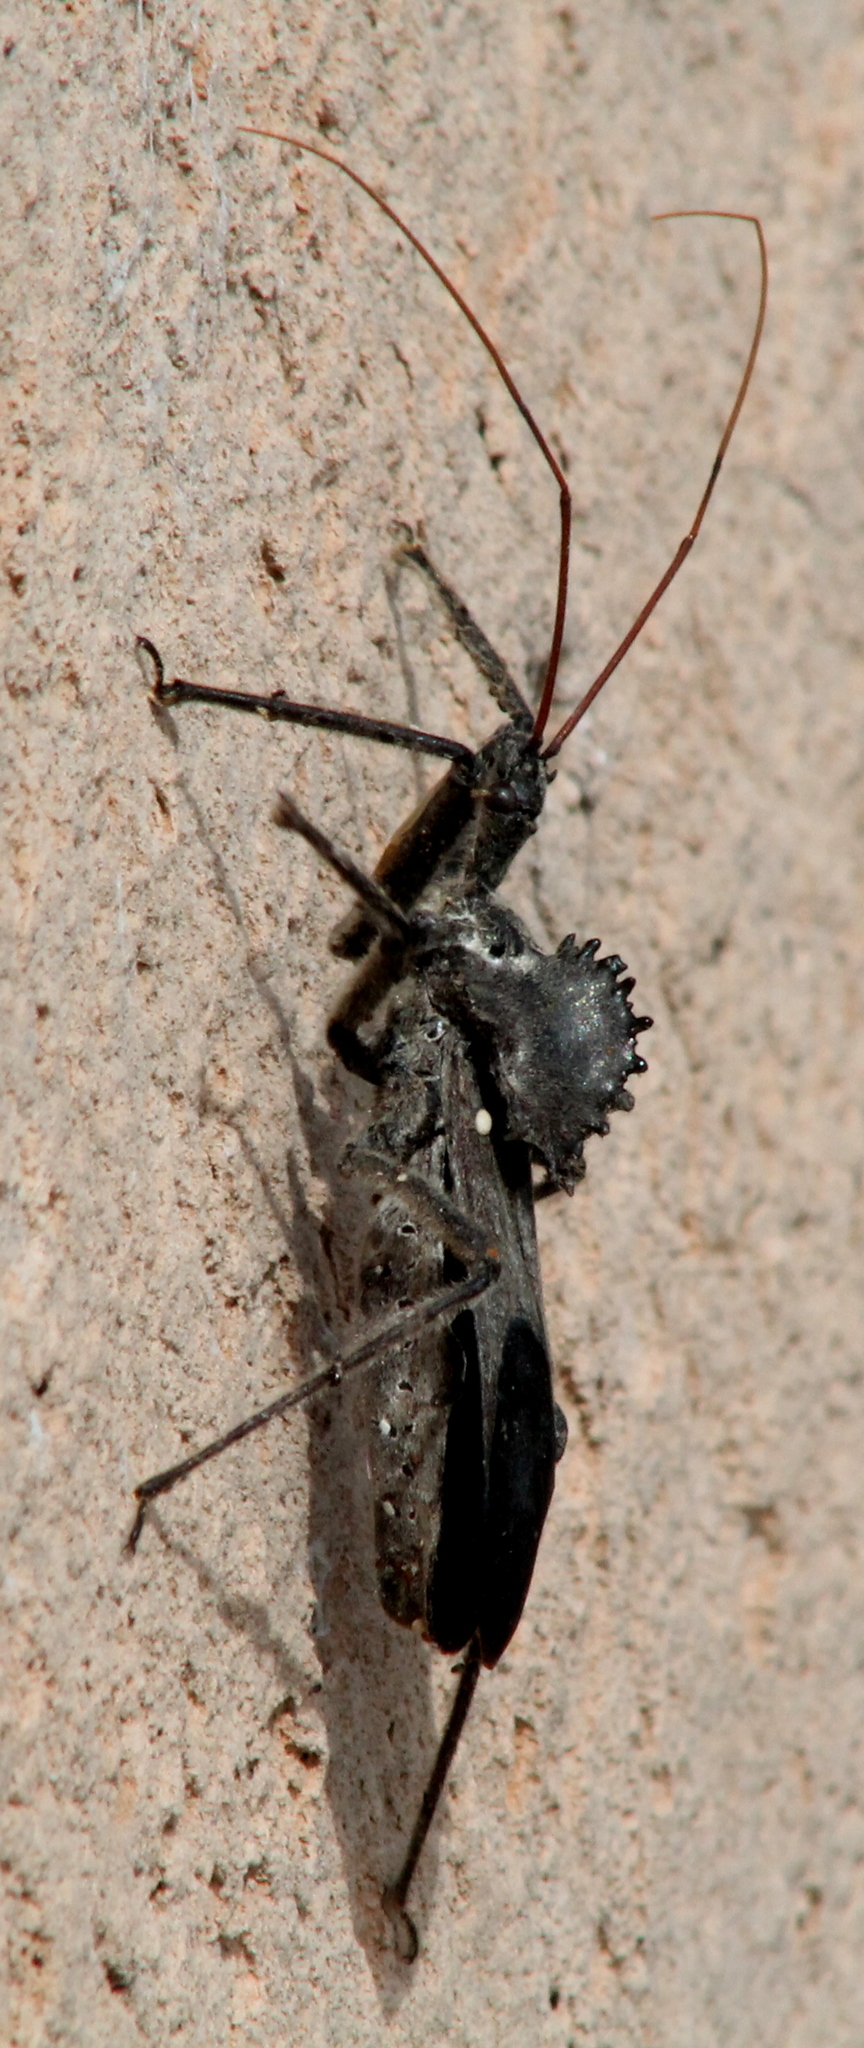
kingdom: Animalia
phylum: Arthropoda
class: Insecta
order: Hemiptera
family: Reduviidae
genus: Arilus
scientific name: Arilus cristatus
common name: North american wheel bug
